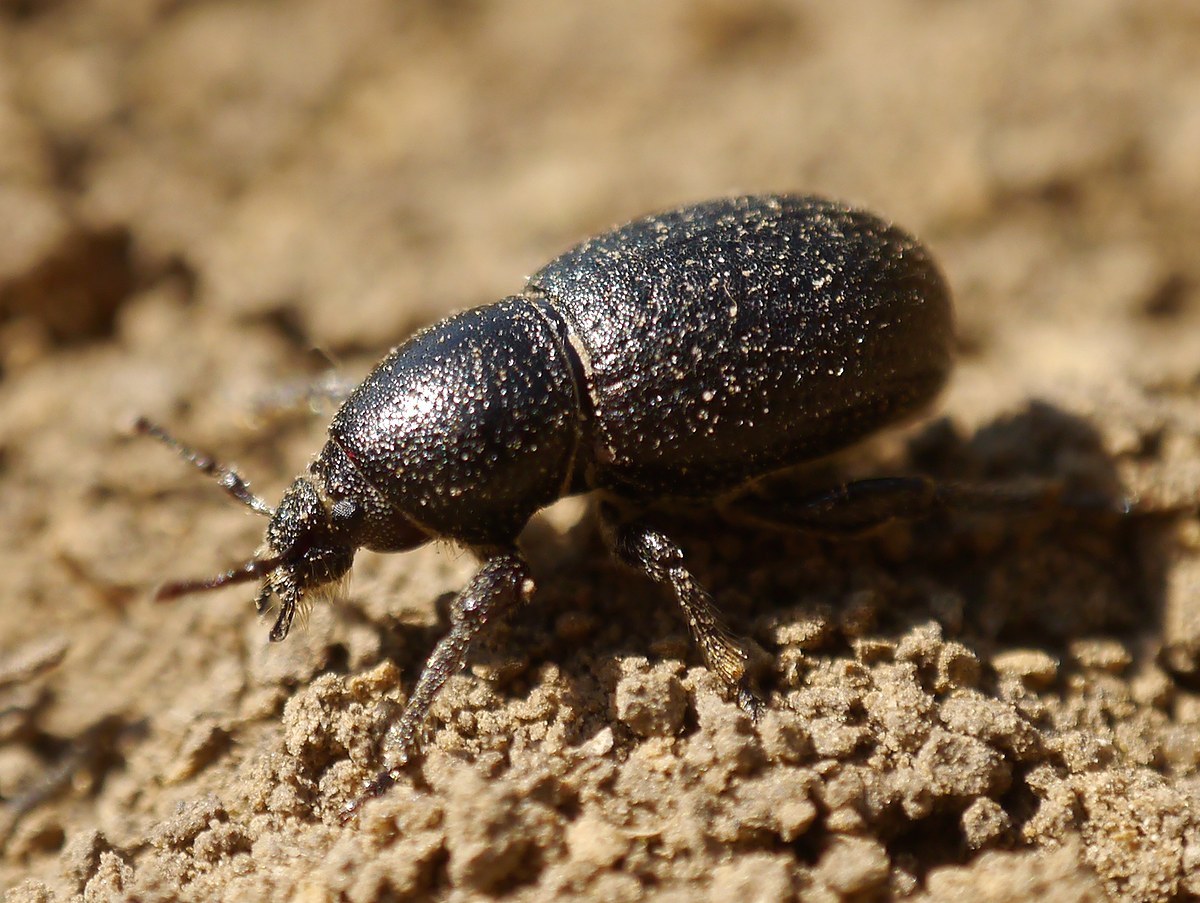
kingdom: Animalia
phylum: Arthropoda
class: Insecta
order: Coleoptera
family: Curculionidae
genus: Psallidium
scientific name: Psallidium maxillosum
